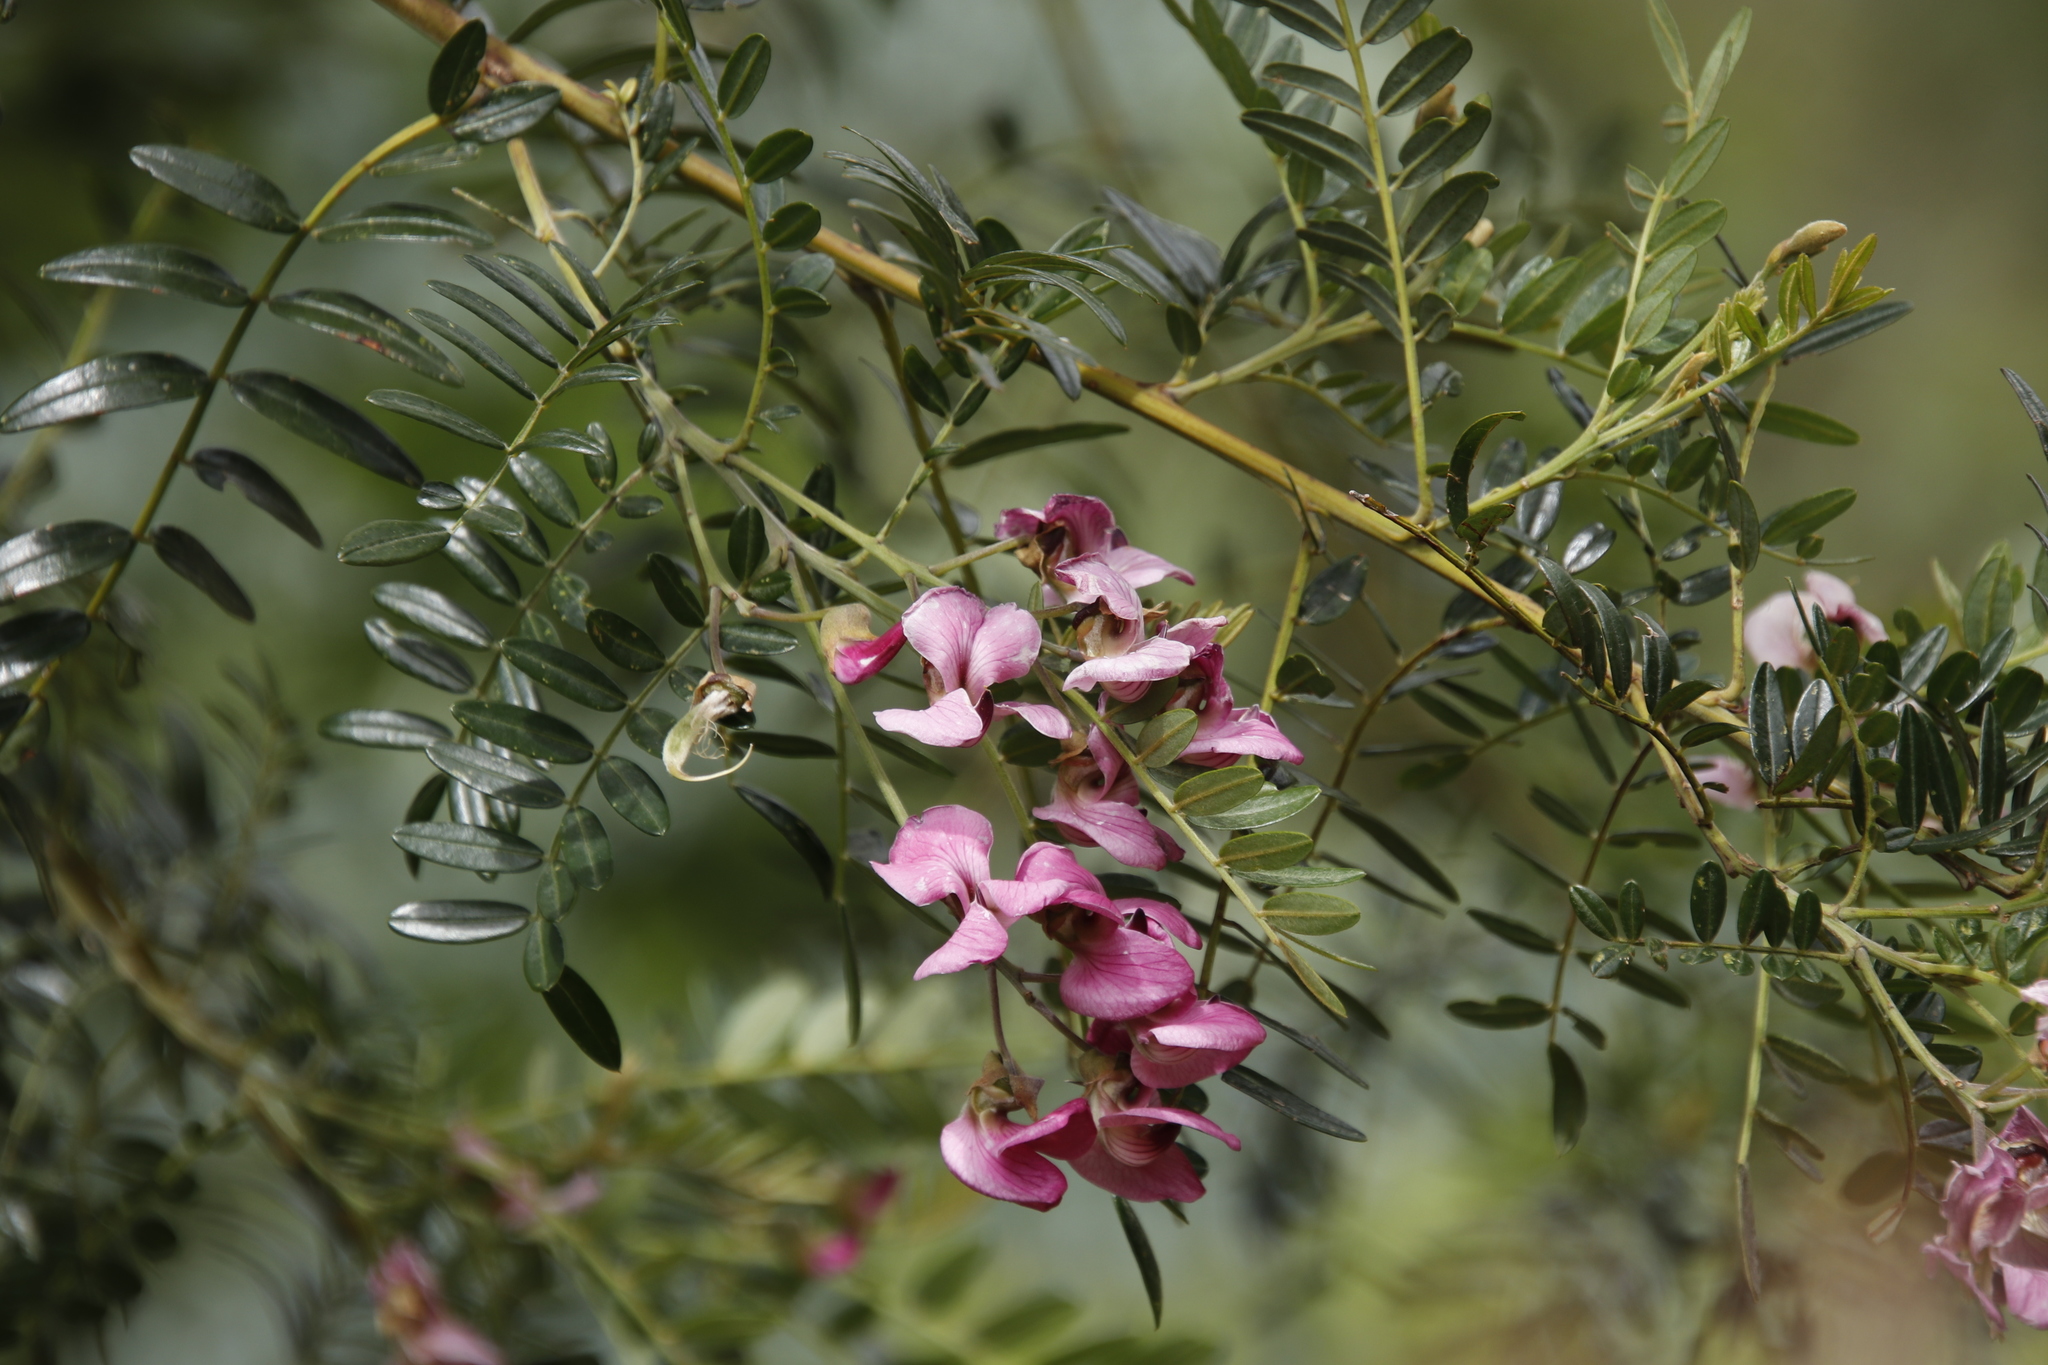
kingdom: Plantae
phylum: Tracheophyta
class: Magnoliopsida
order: Fabales
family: Fabaceae
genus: Virgilia
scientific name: Virgilia oroboides
